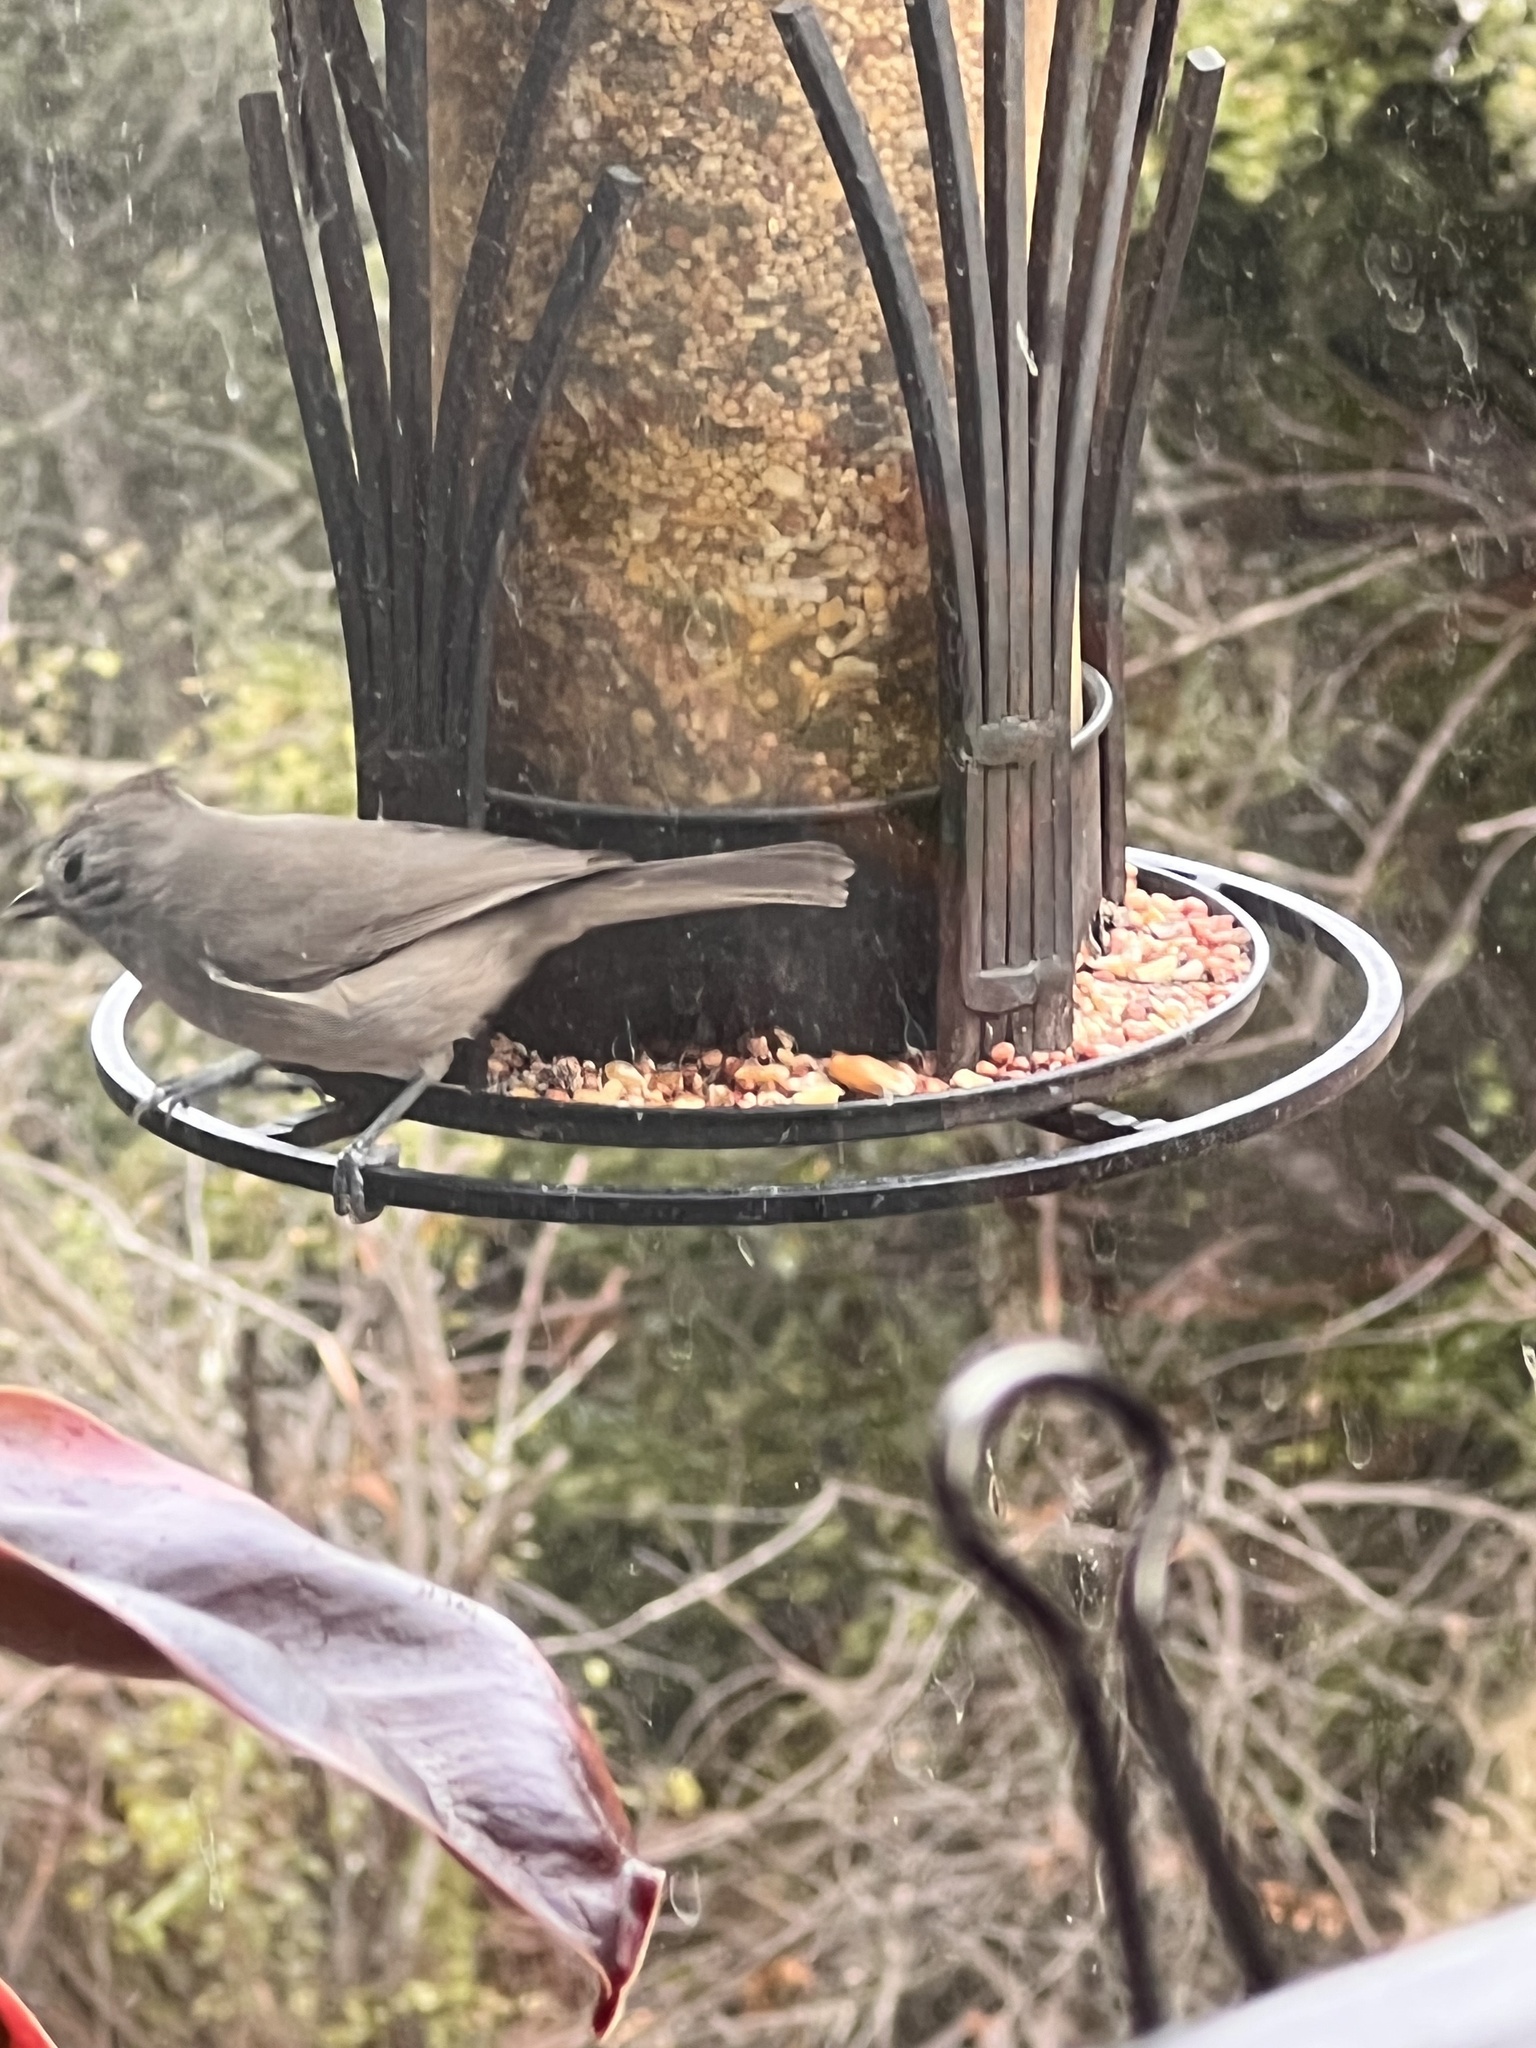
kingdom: Animalia
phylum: Chordata
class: Aves
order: Passeriformes
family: Paridae
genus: Baeolophus
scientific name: Baeolophus inornatus
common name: Oak titmouse
